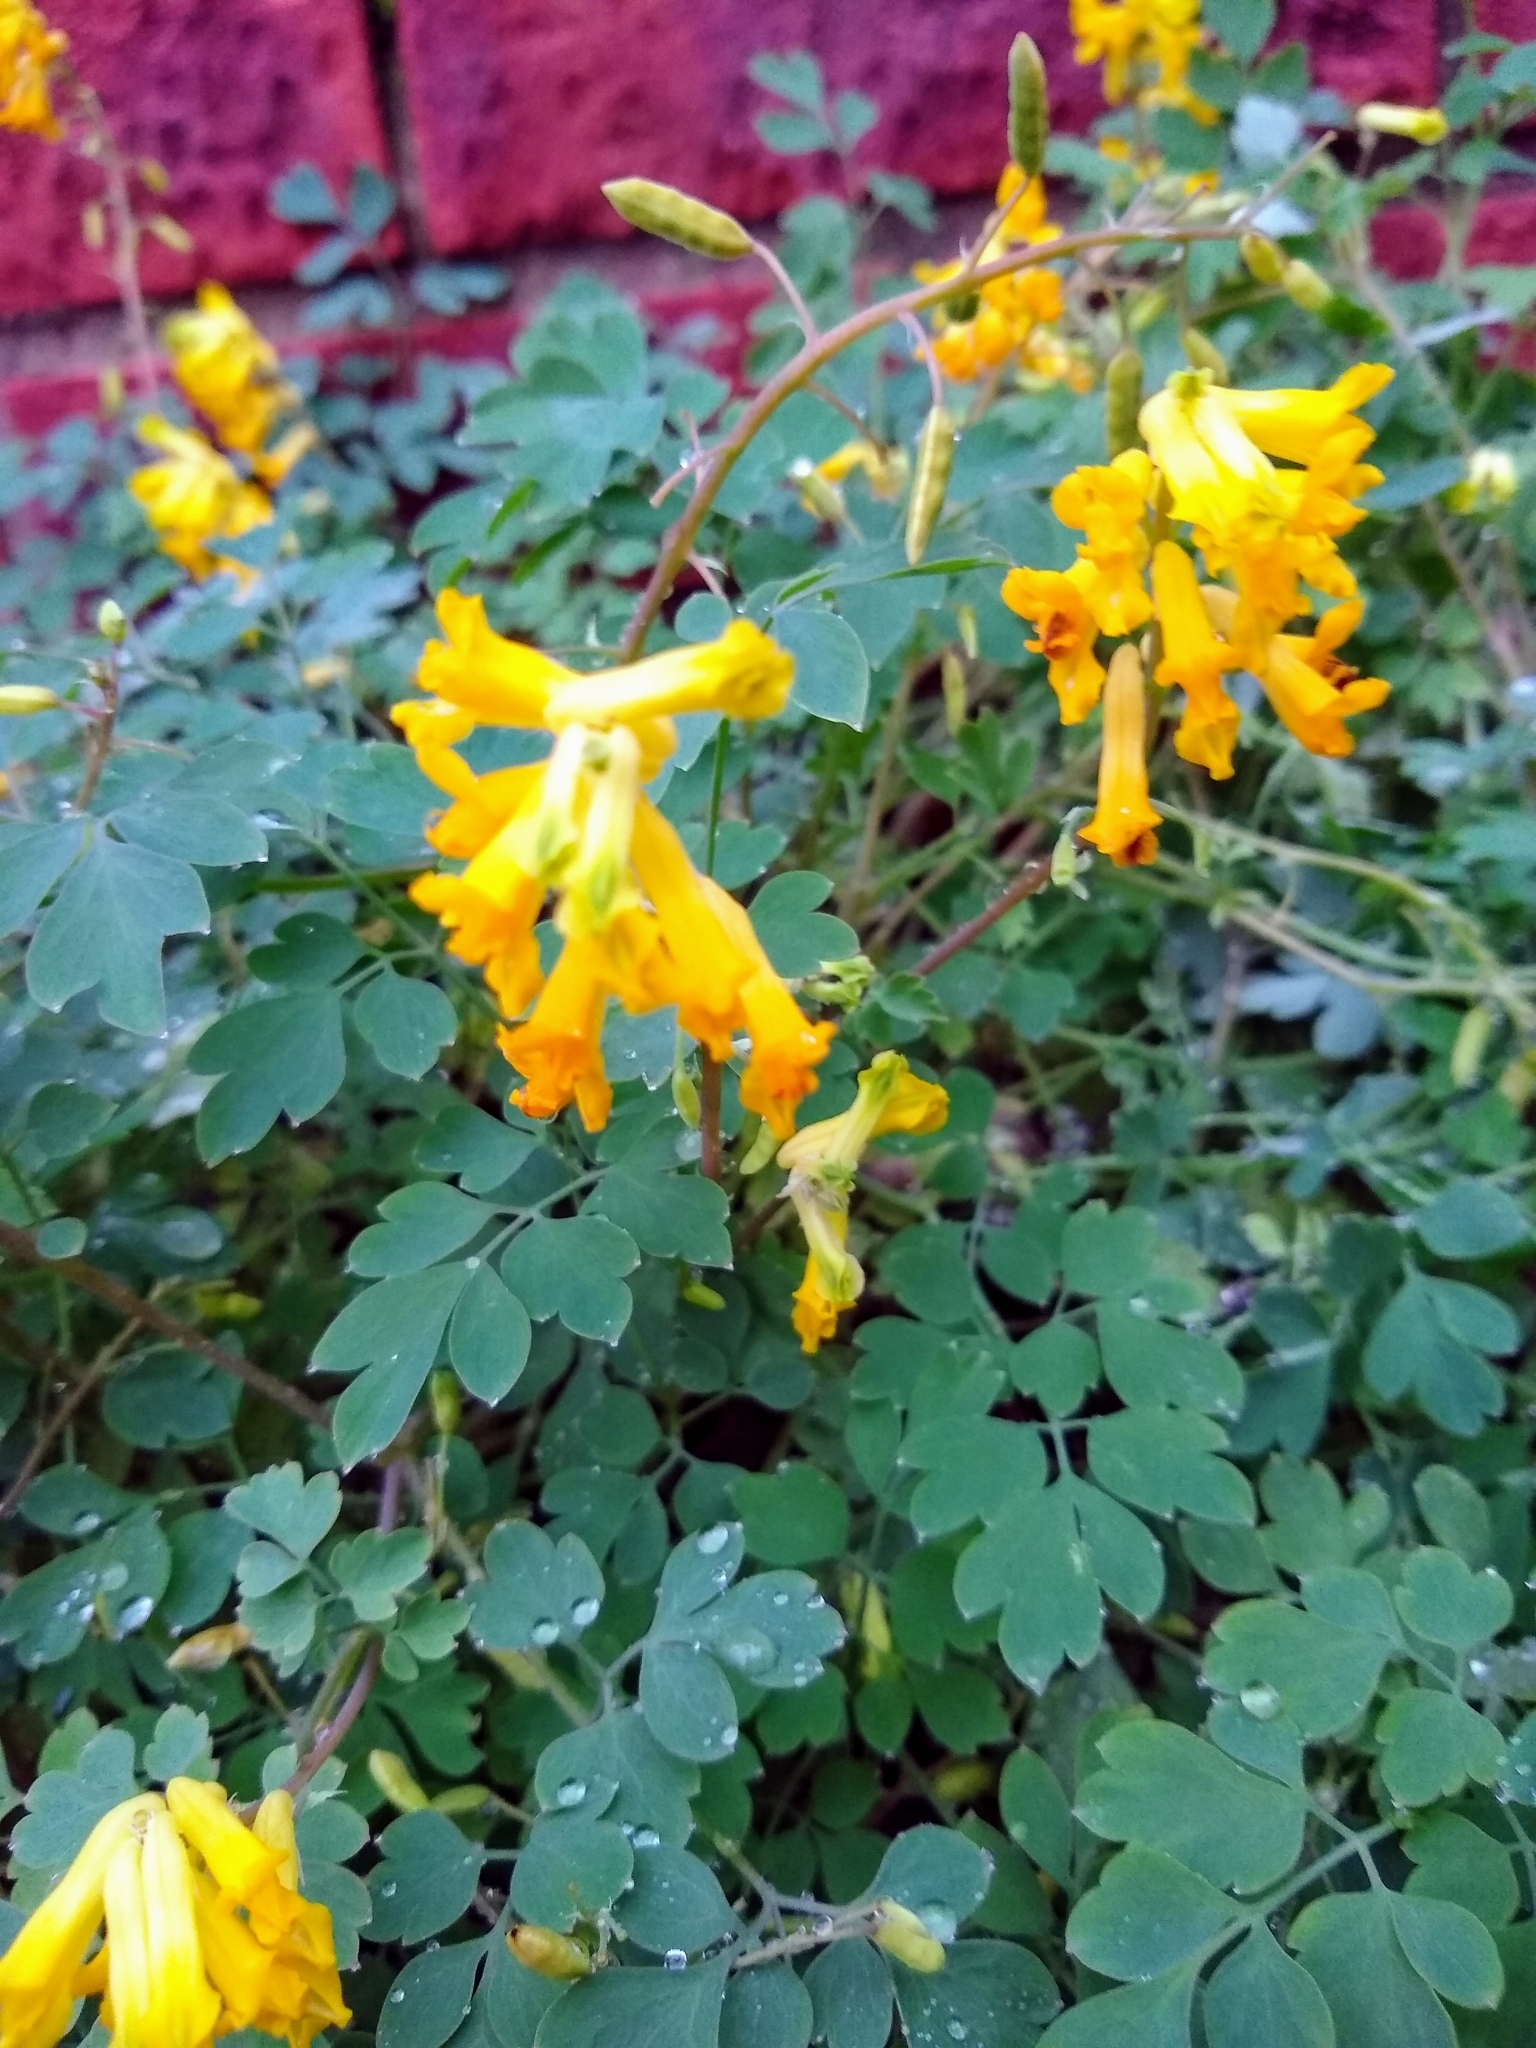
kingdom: Plantae
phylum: Tracheophyta
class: Magnoliopsida
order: Ranunculales
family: Papaveraceae
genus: Pseudofumaria
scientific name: Pseudofumaria lutea
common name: Yellow corydalis
